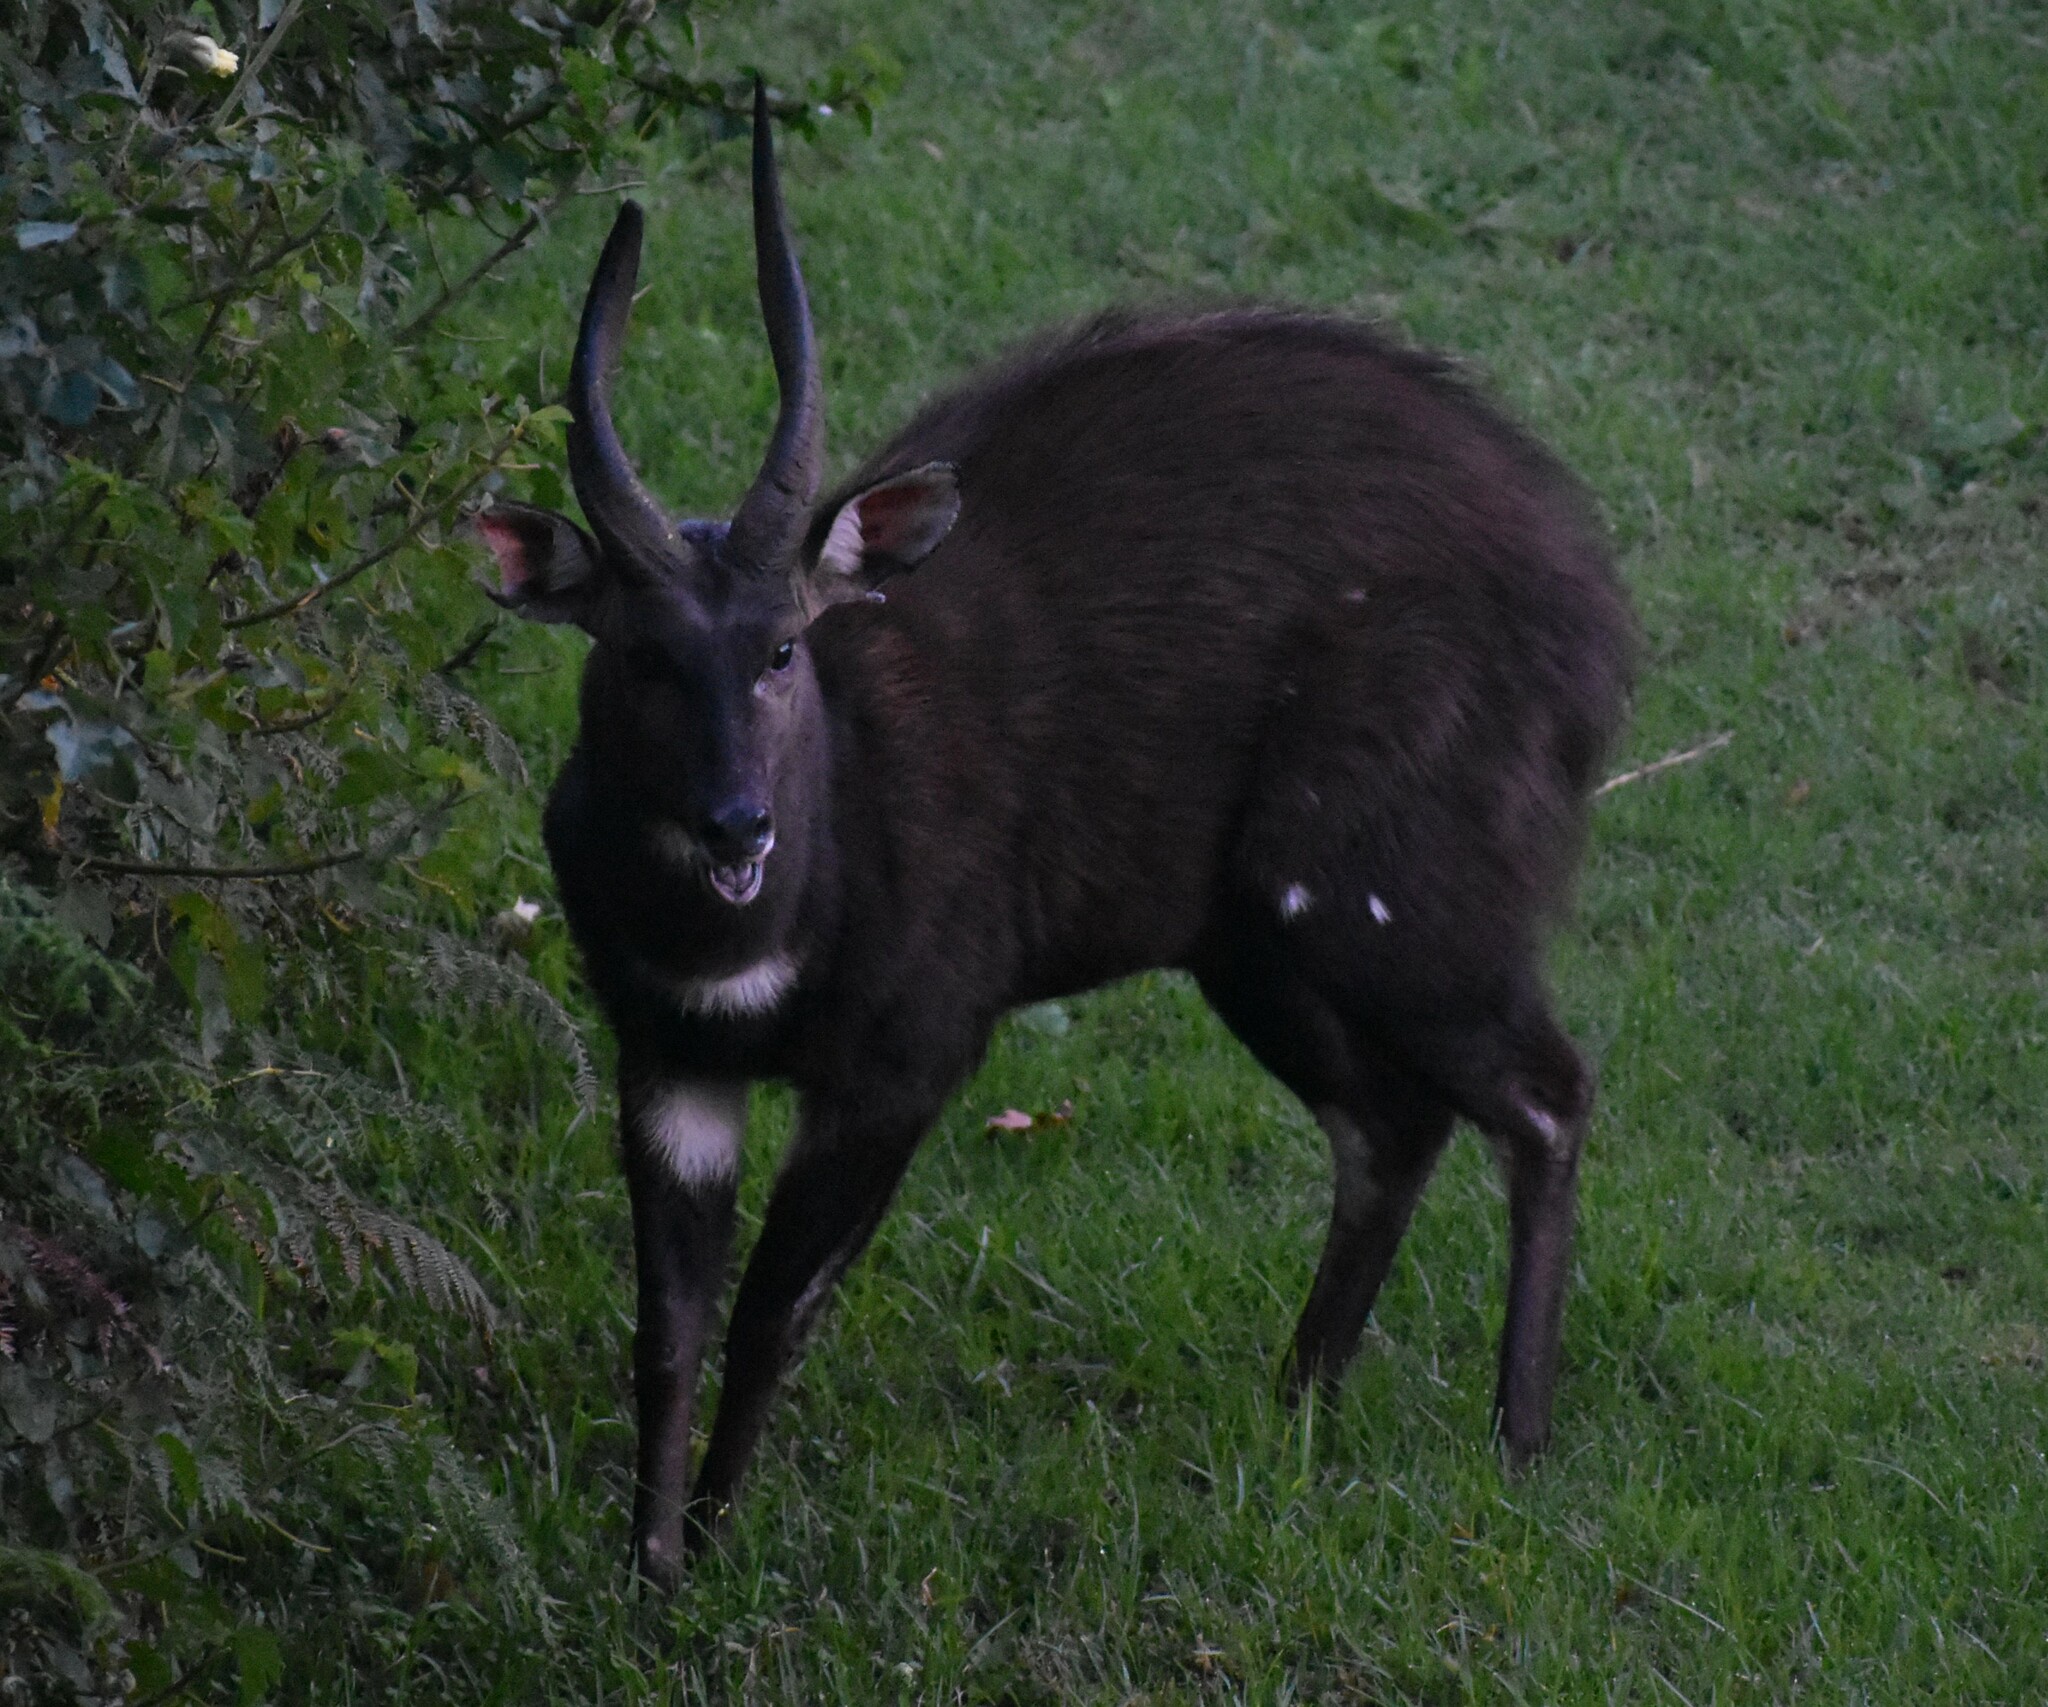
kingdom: Animalia
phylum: Chordata
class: Mammalia
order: Artiodactyla
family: Bovidae
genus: Tragelaphus
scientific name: Tragelaphus scriptus
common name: Bushbuck
